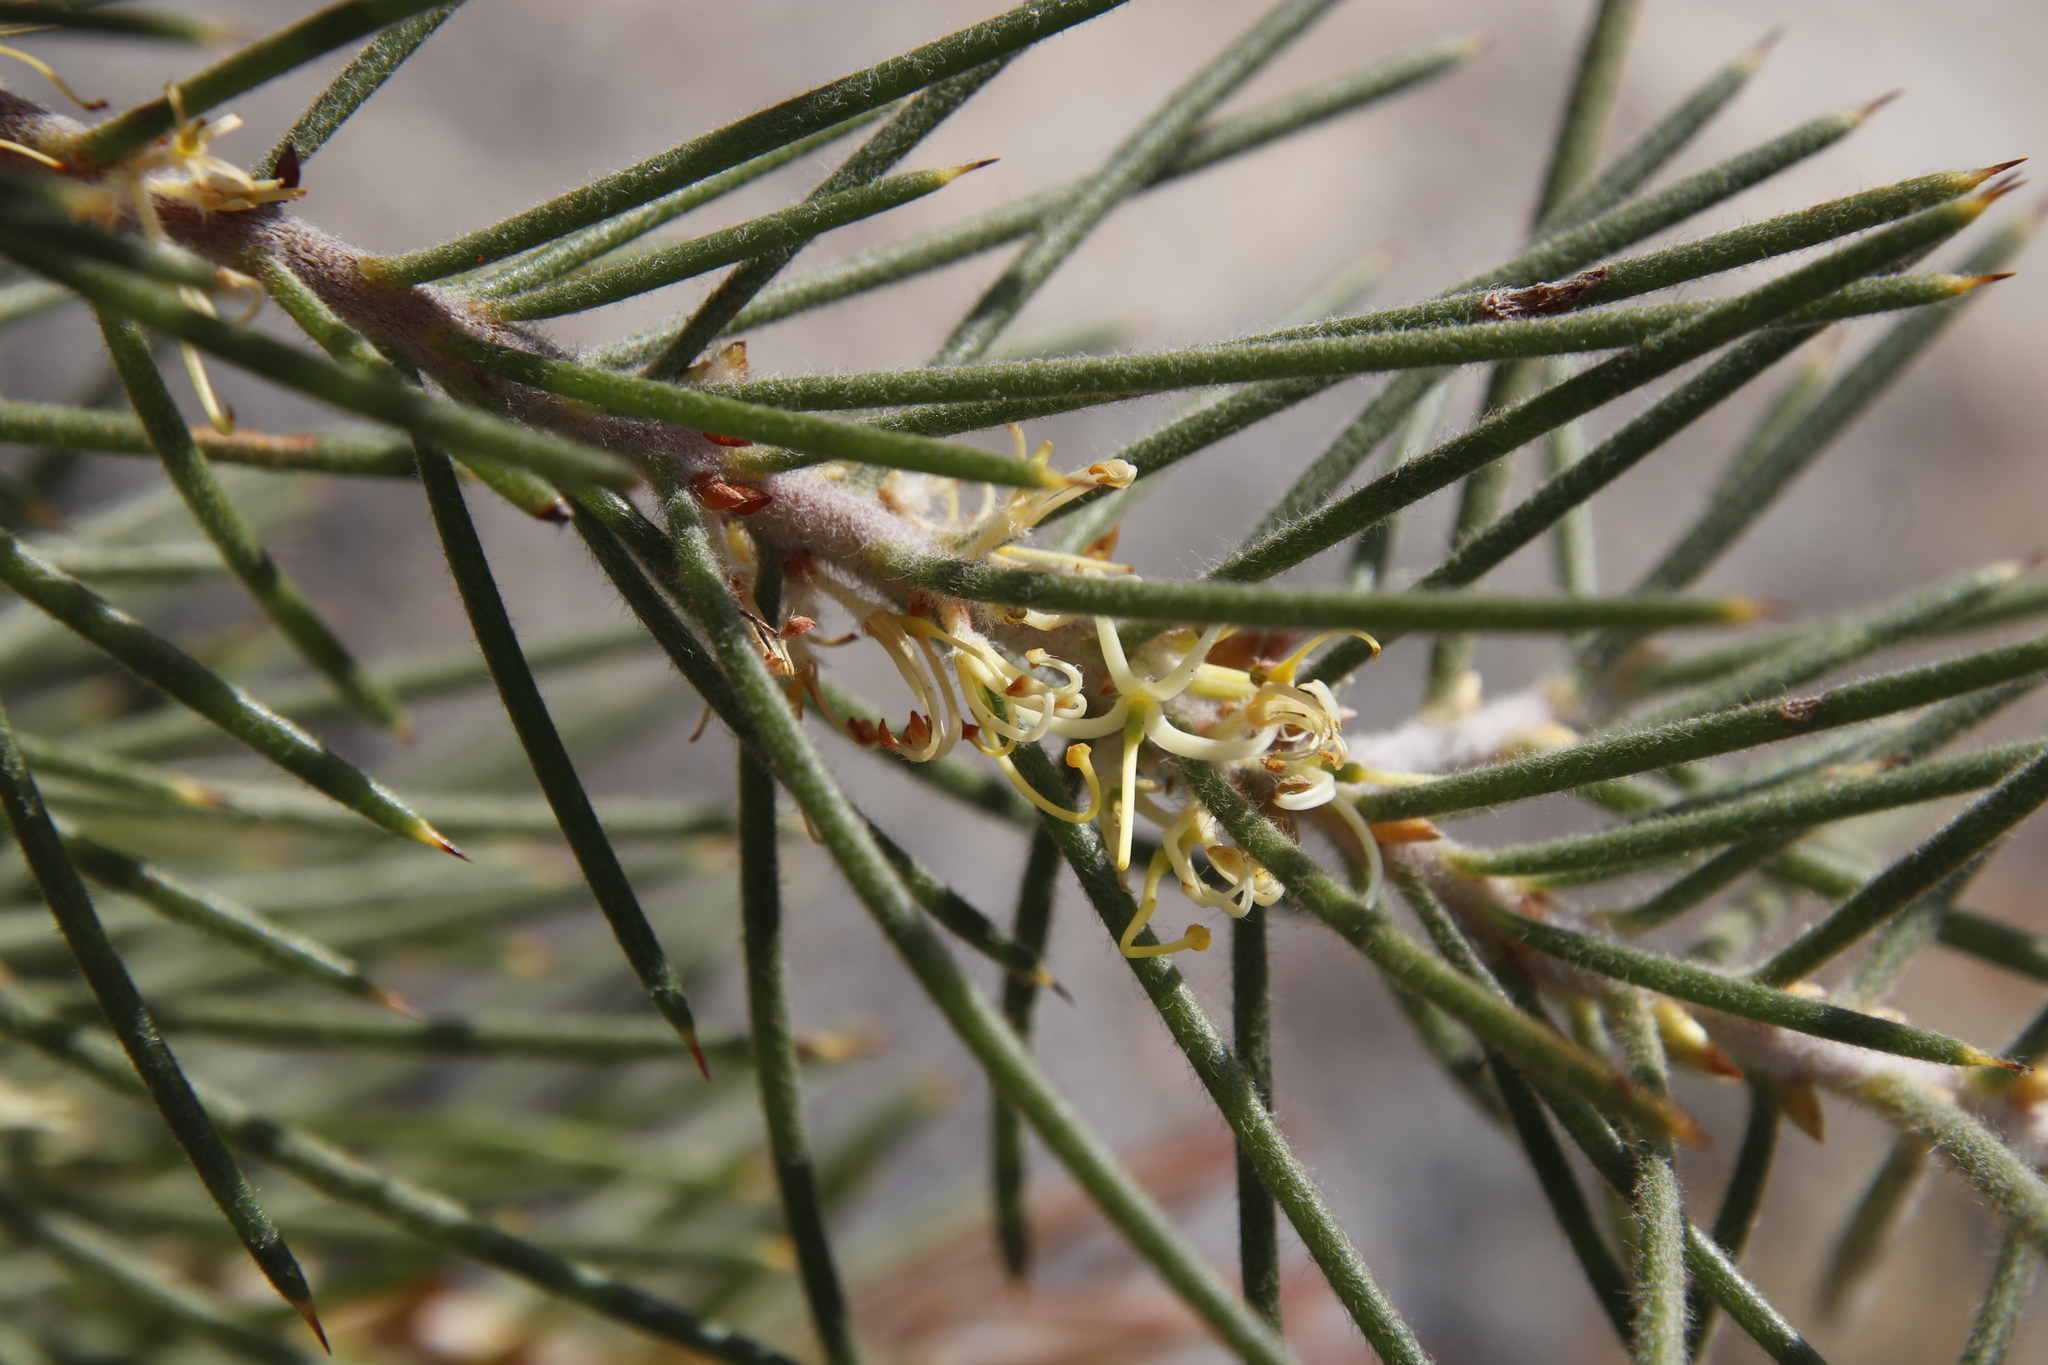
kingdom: Plantae
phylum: Tracheophyta
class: Magnoliopsida
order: Proteales
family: Proteaceae
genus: Hakea
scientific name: Hakea gibbosa
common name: Rock hakea
